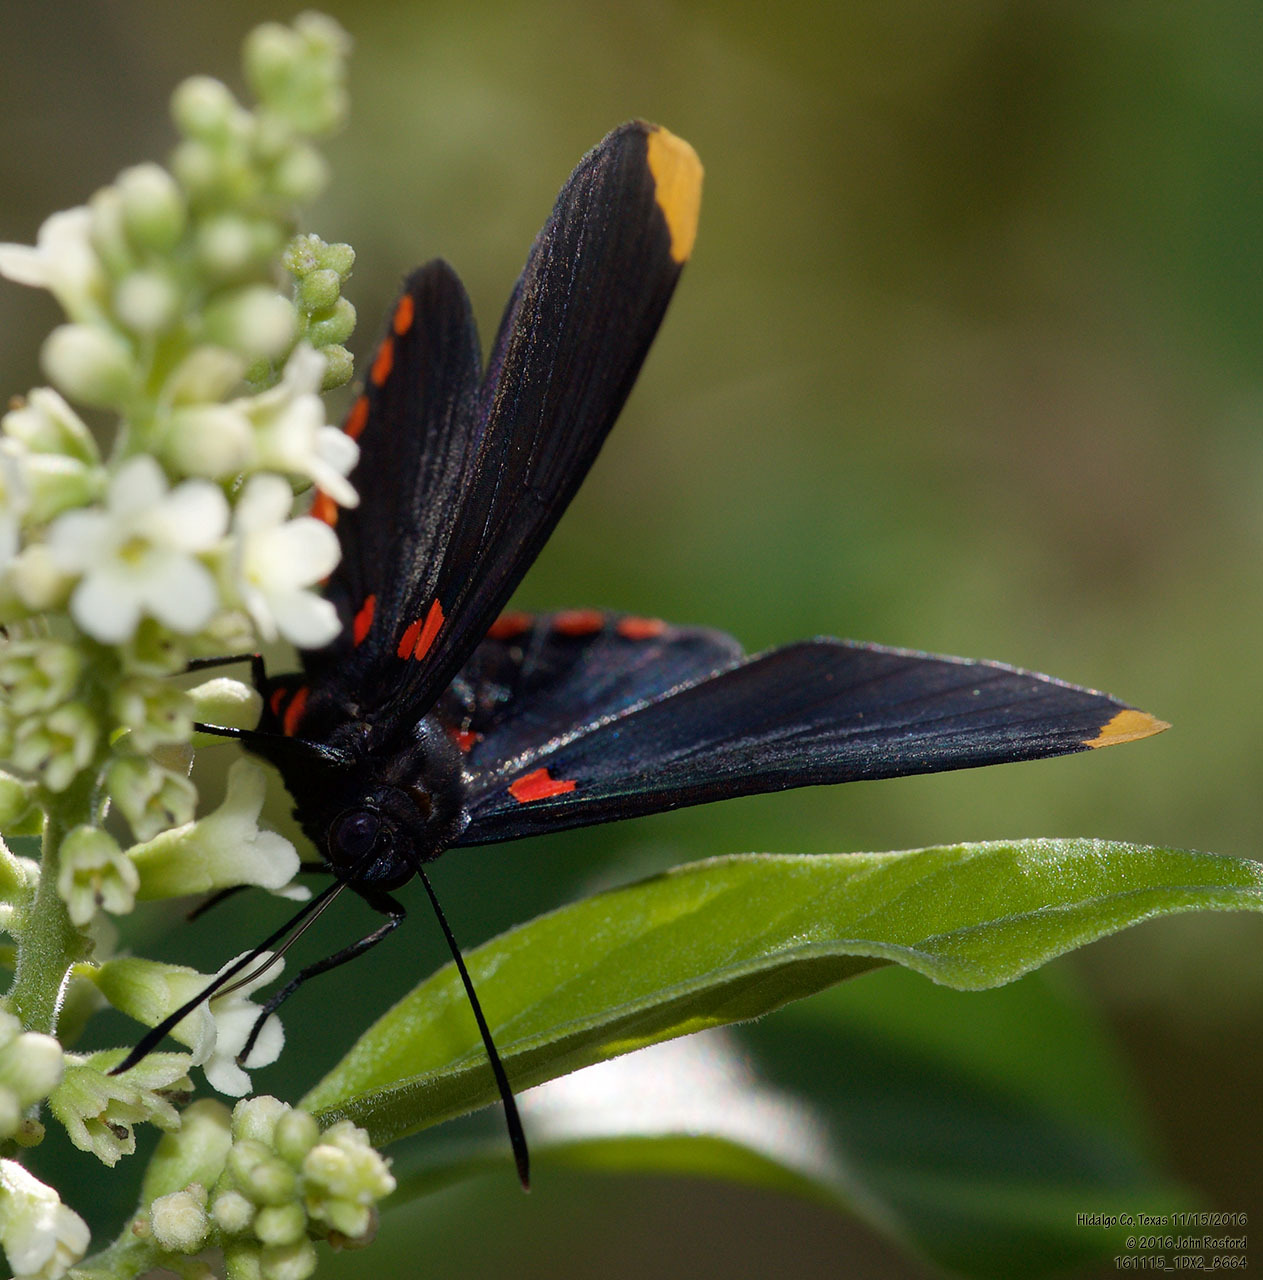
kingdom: Animalia
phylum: Arthropoda
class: Insecta
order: Lepidoptera
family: Lycaenidae
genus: Melanis
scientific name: Melanis pixe
